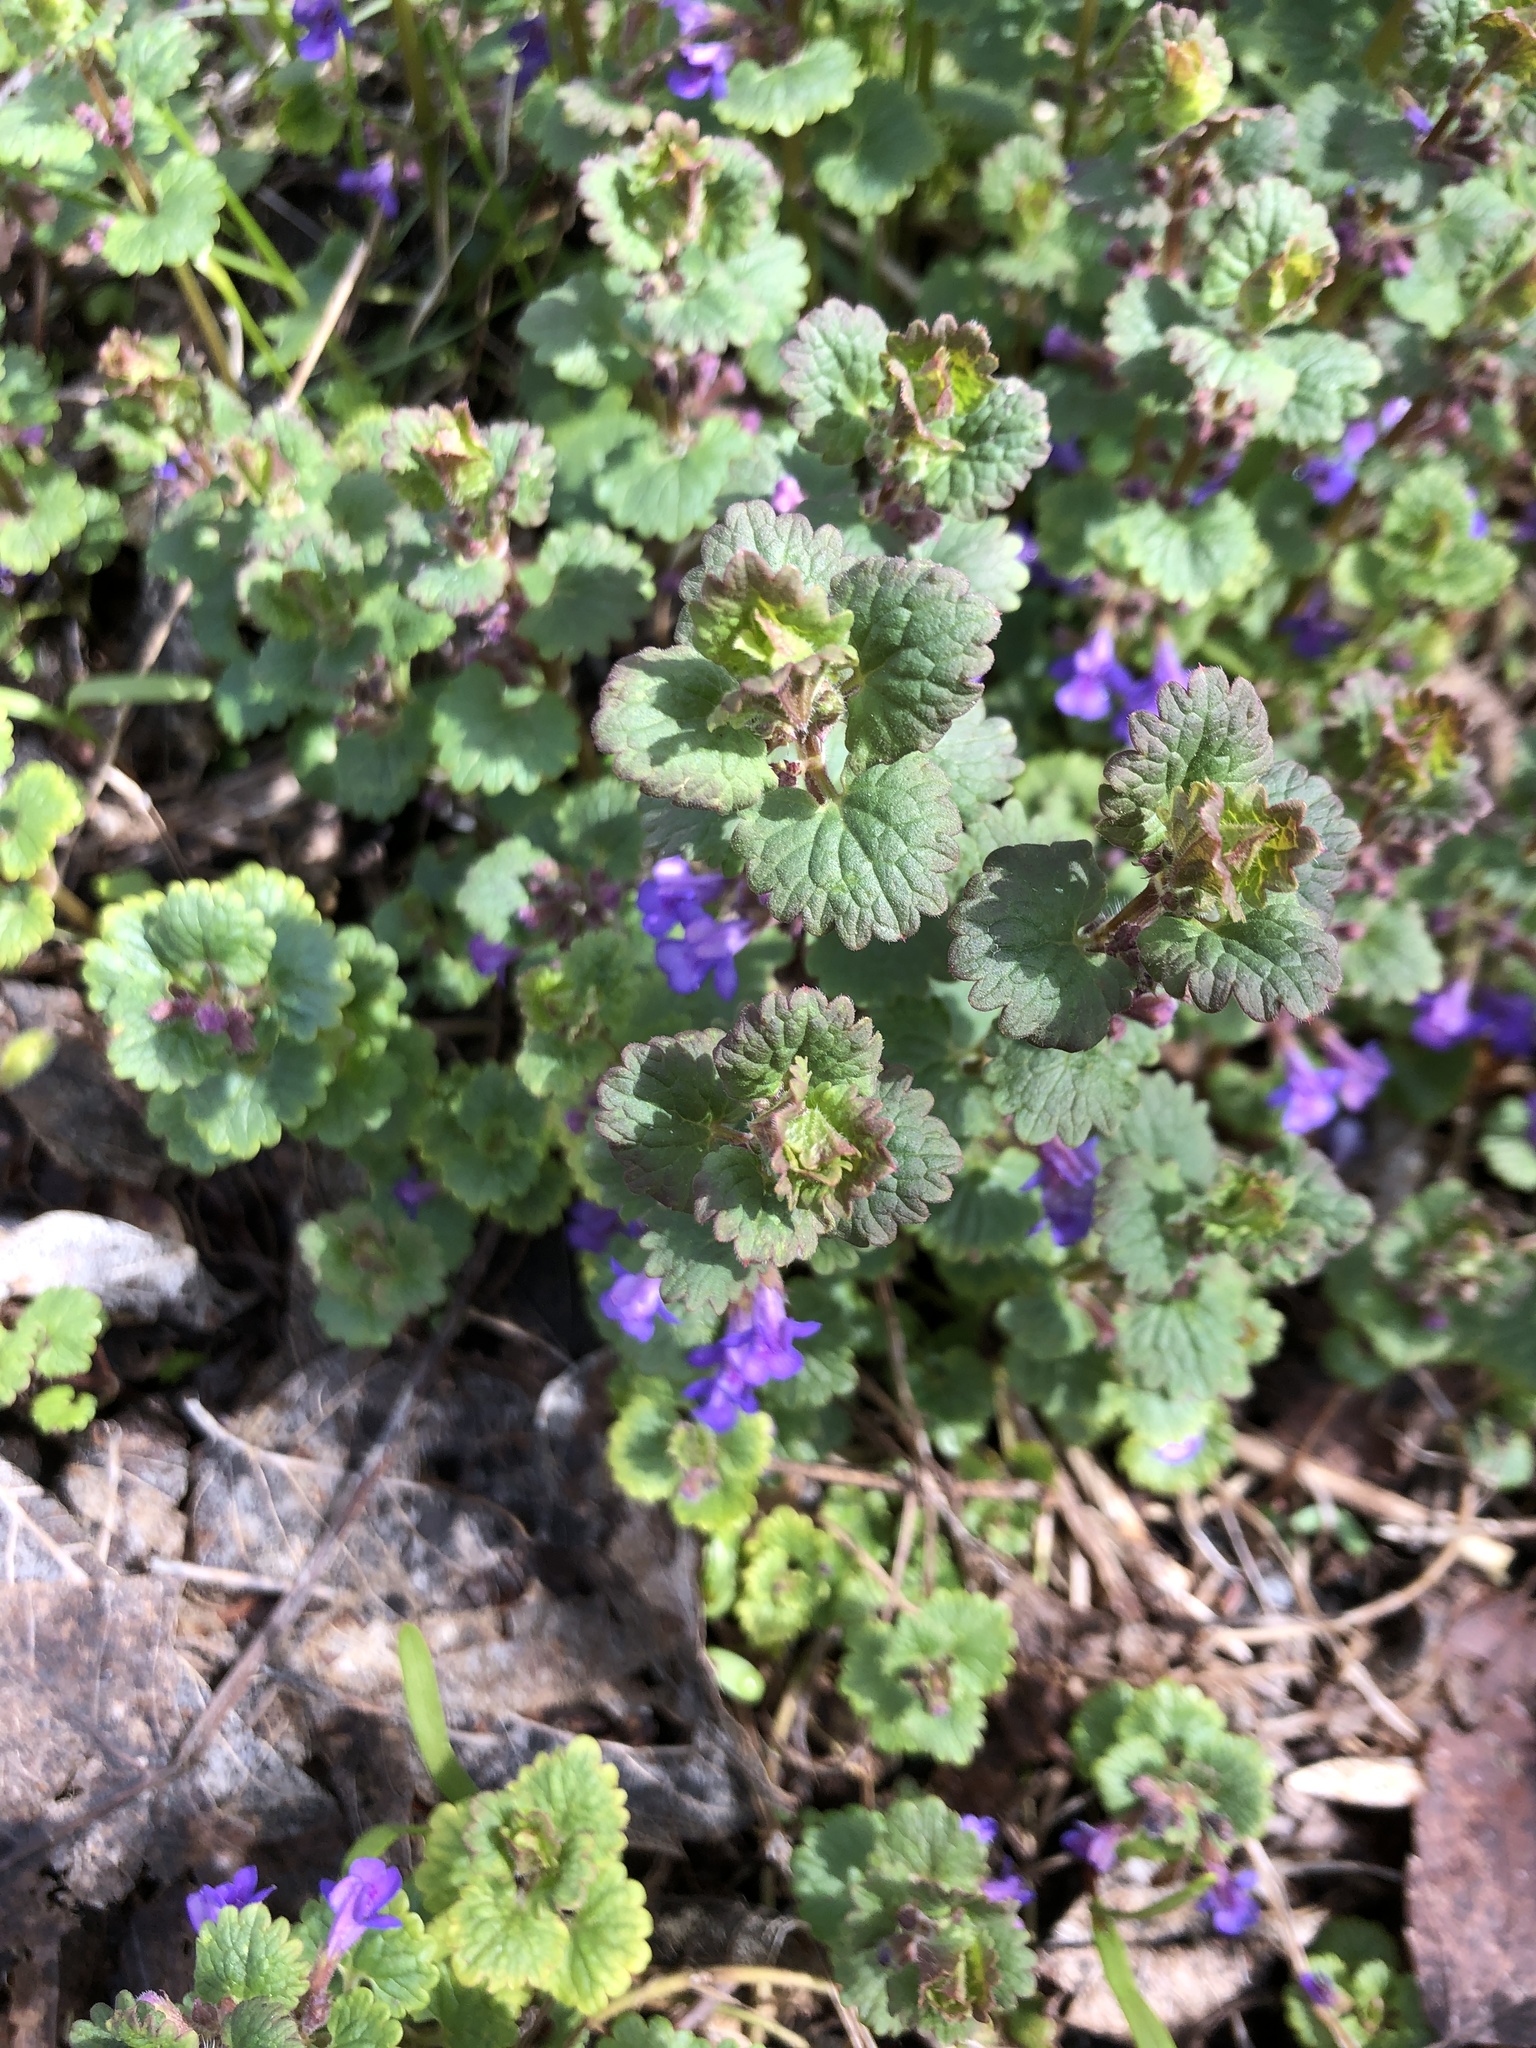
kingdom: Plantae
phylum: Tracheophyta
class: Magnoliopsida
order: Lamiales
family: Lamiaceae
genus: Glechoma
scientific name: Glechoma hederacea
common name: Ground ivy
